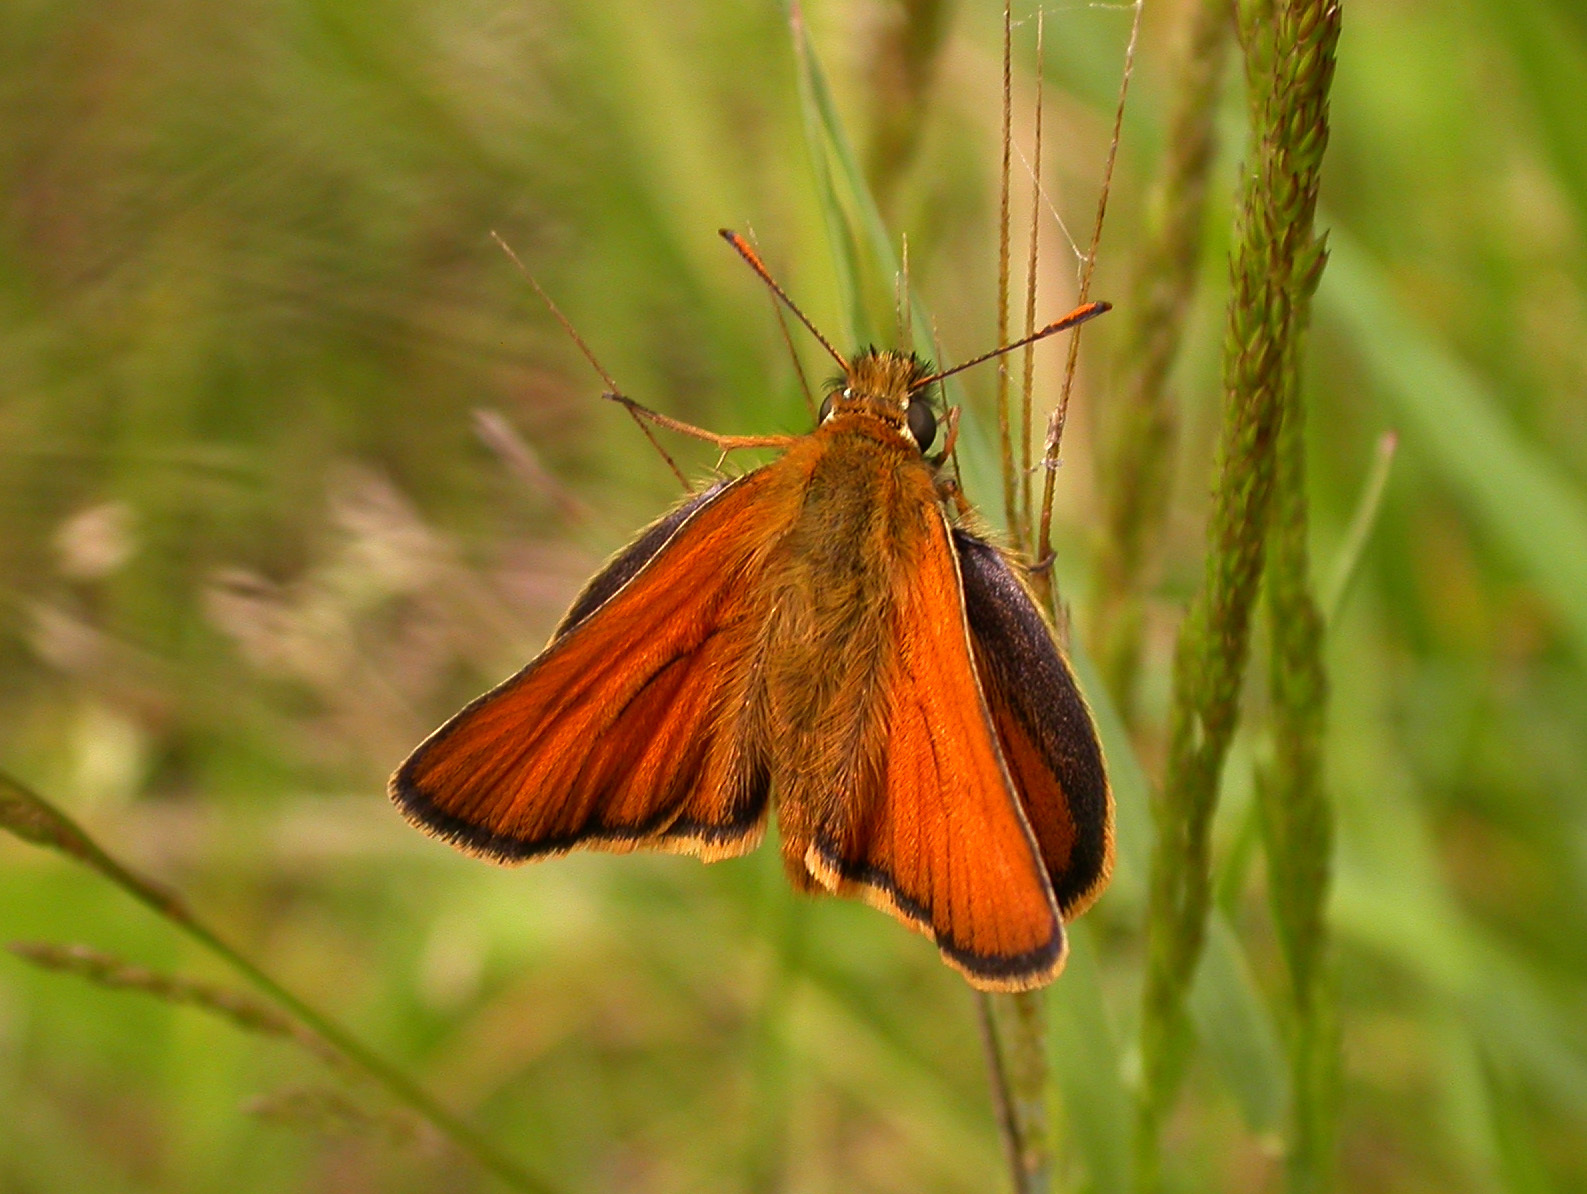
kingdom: Animalia
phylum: Arthropoda
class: Insecta
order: Lepidoptera
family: Hesperiidae
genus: Thymelicus
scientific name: Thymelicus sylvestris
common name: Small skipper
